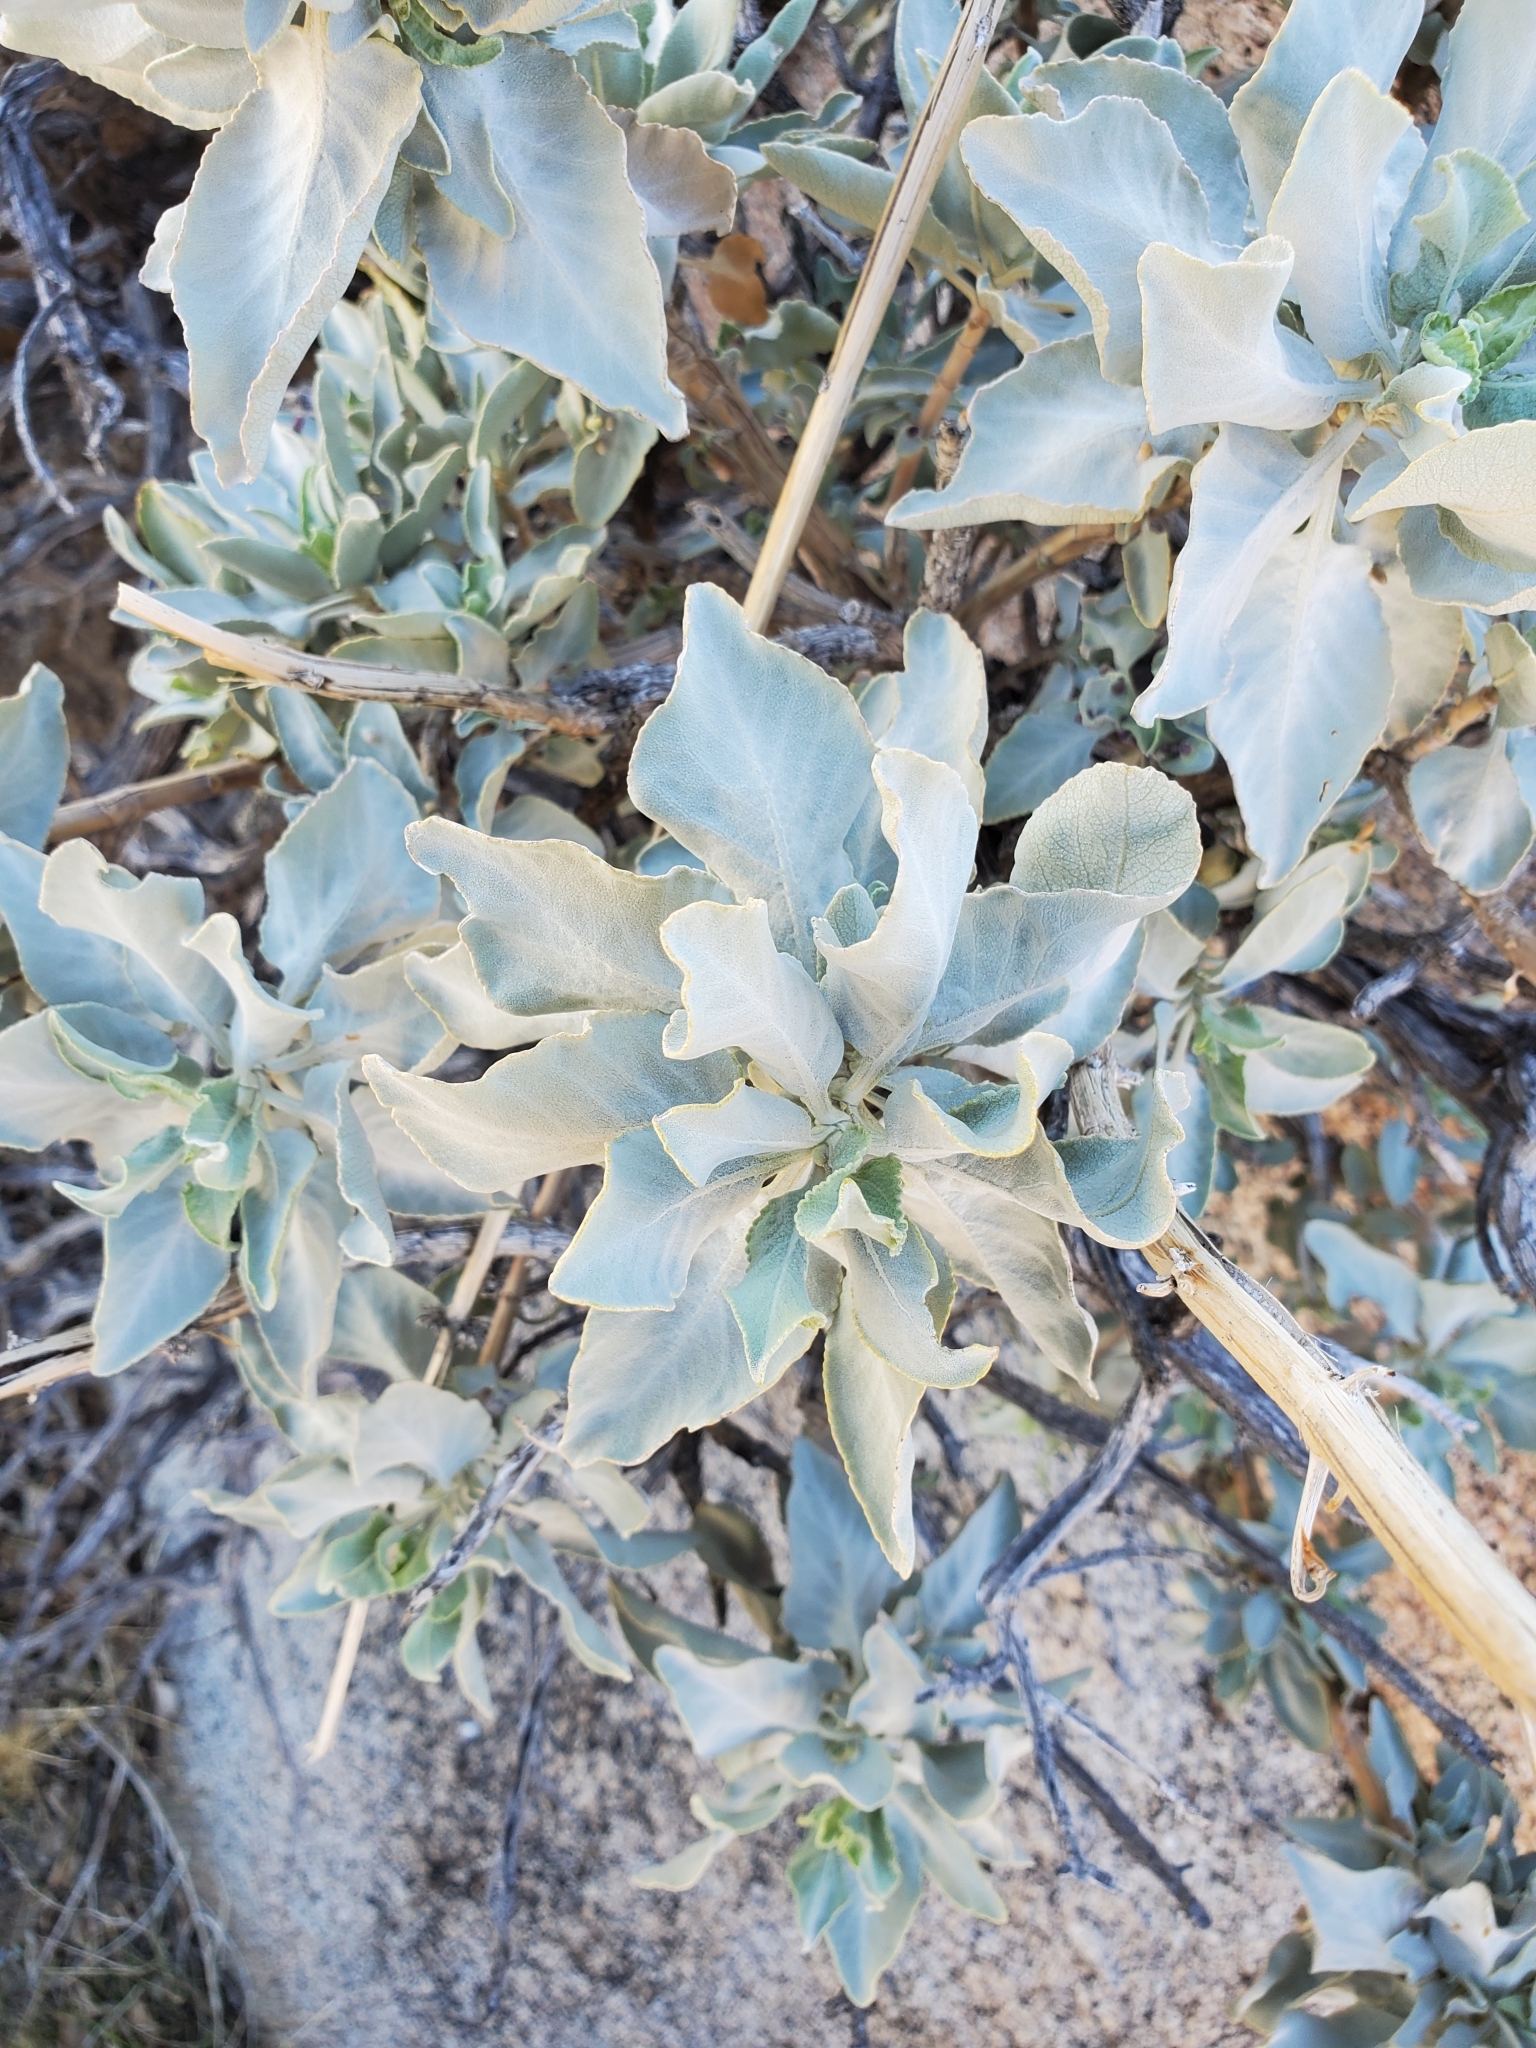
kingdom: Plantae
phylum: Tracheophyta
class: Magnoliopsida
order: Lamiales
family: Lamiaceae
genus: Salvia
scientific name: Salvia vaseyi
